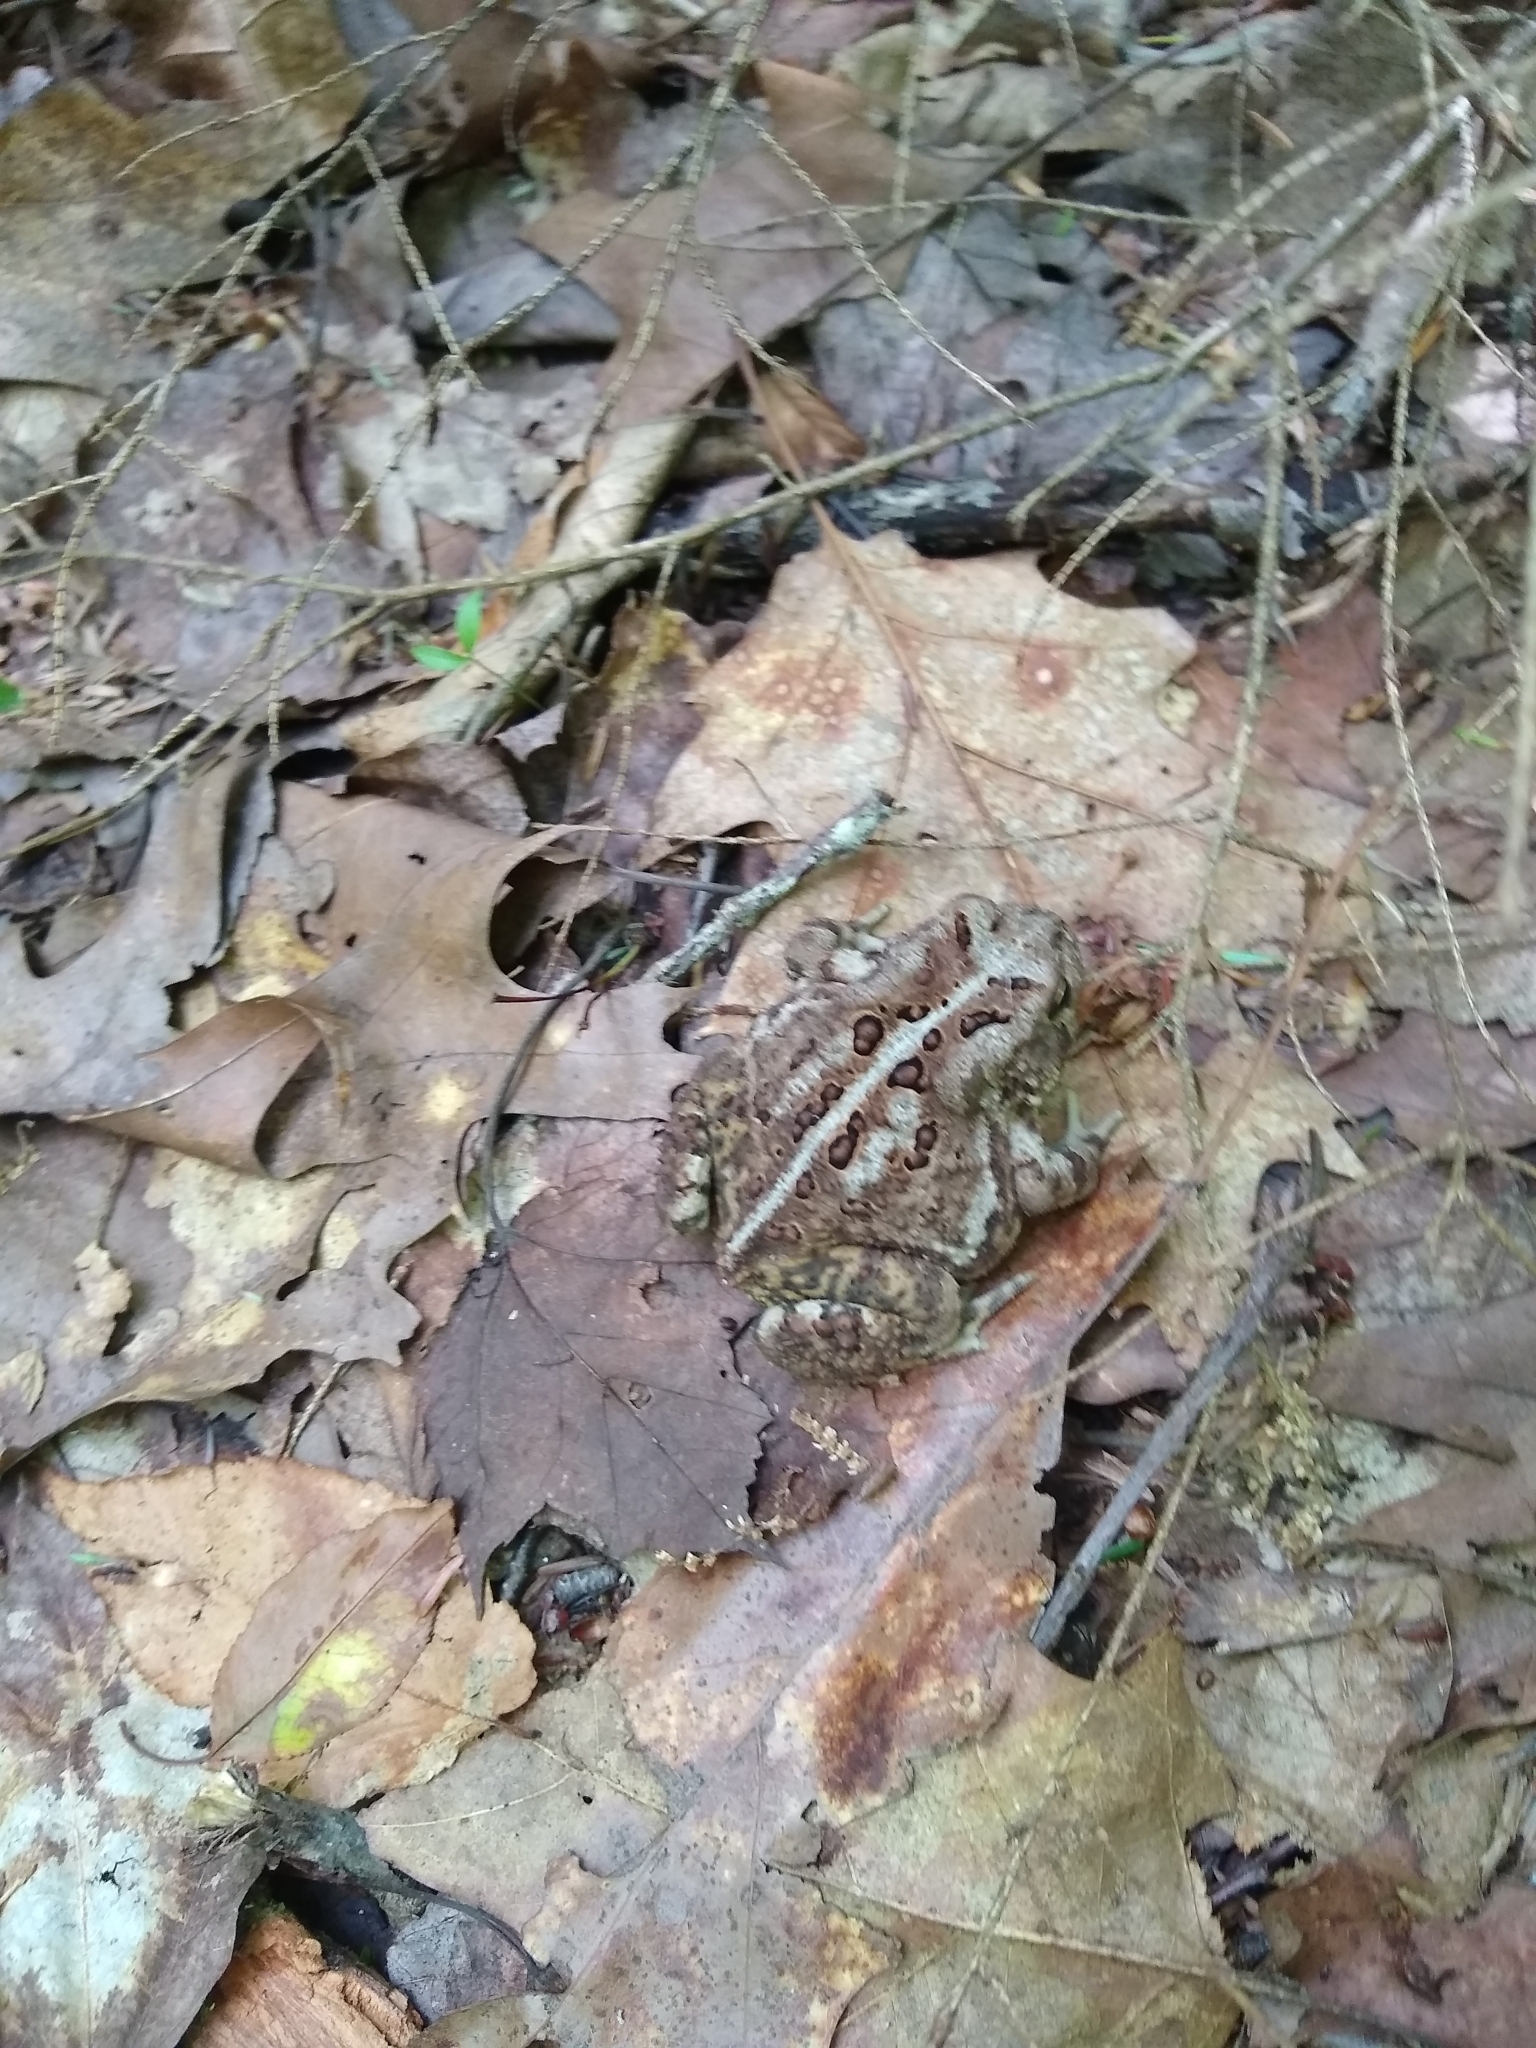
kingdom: Animalia
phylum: Chordata
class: Amphibia
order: Anura
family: Bufonidae
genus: Anaxyrus
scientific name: Anaxyrus americanus
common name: American toad
